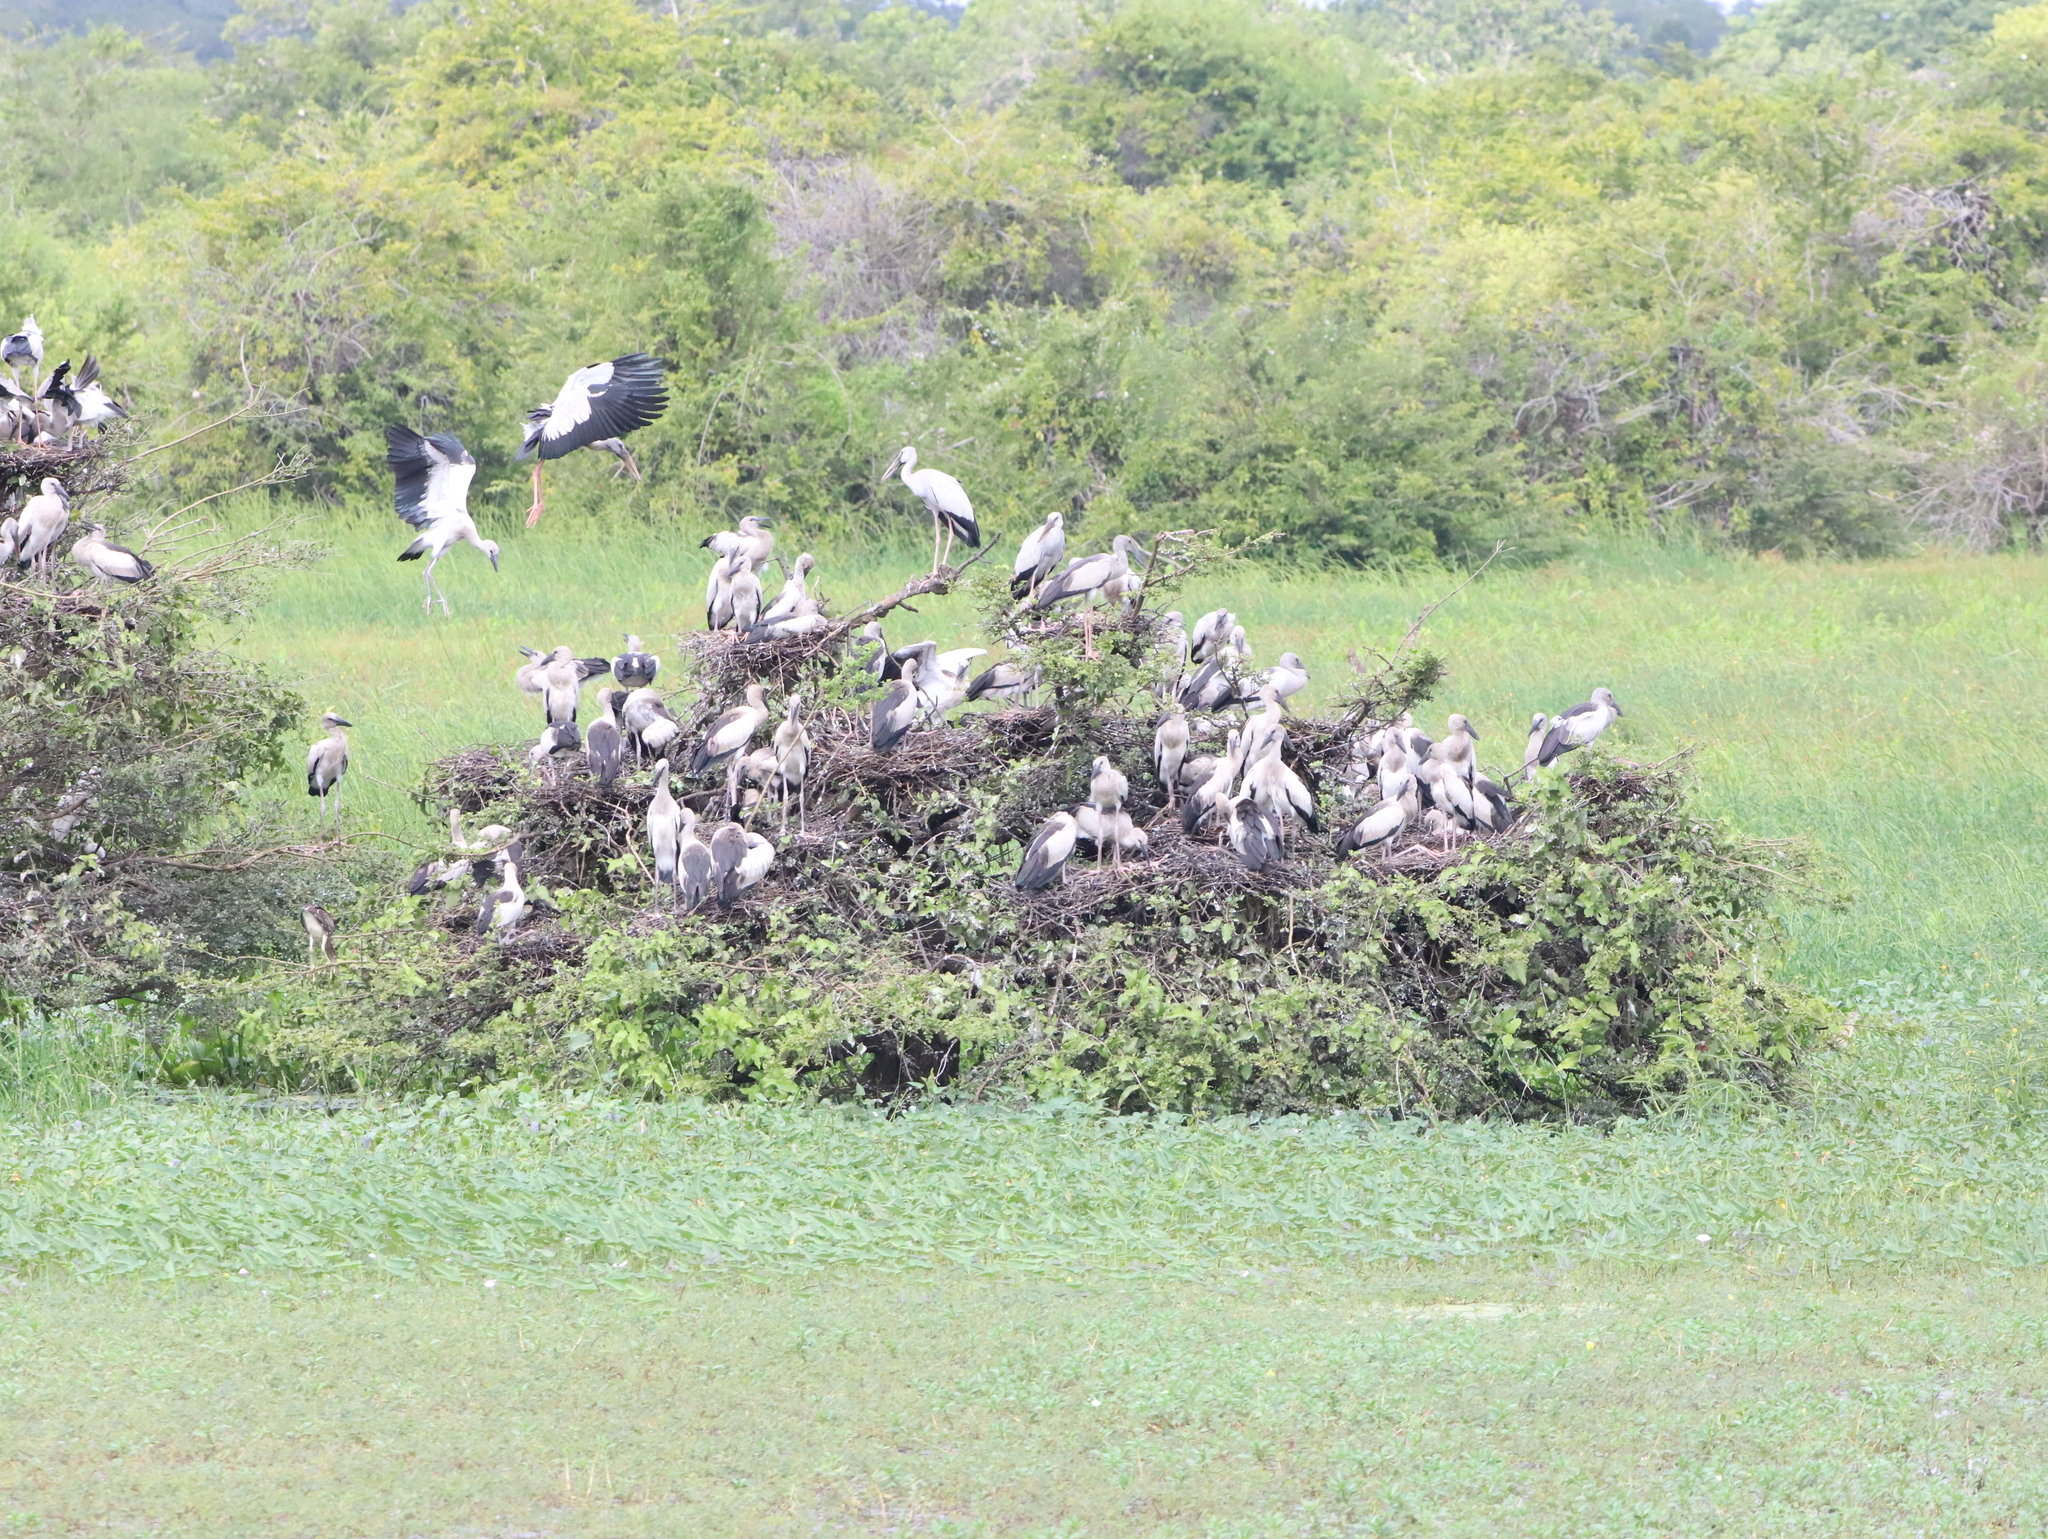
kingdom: Animalia
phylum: Chordata
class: Aves
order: Ciconiiformes
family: Ciconiidae
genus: Anastomus
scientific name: Anastomus oscitans
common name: Asian openbill
